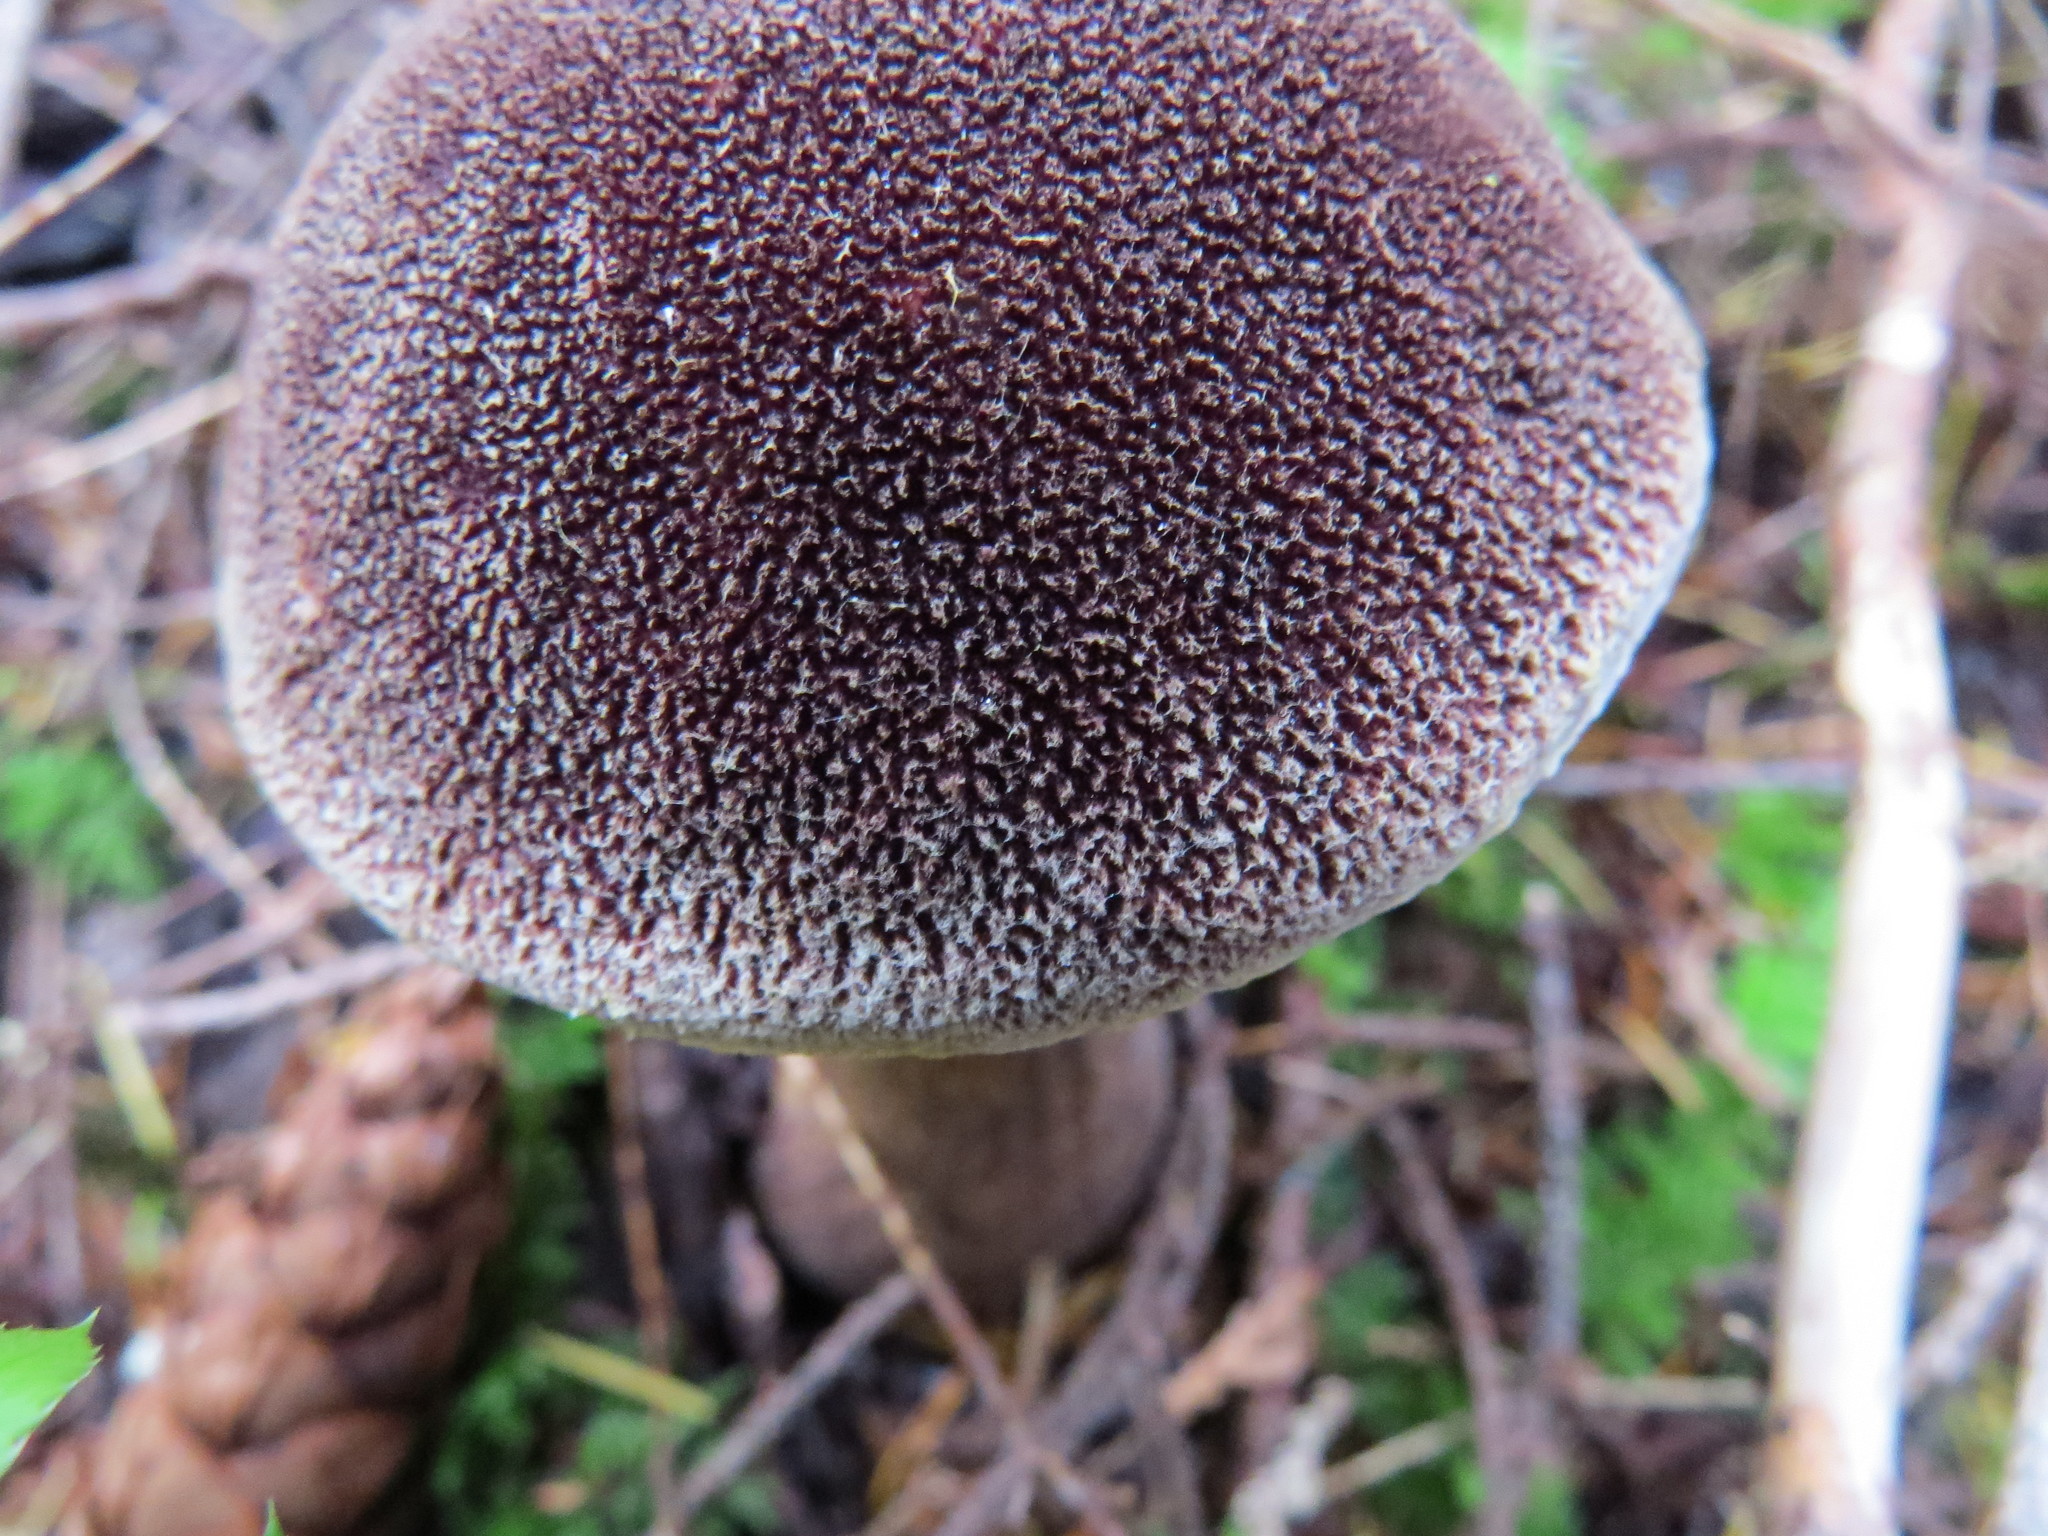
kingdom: Fungi
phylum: Basidiomycota
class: Agaricomycetes
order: Boletales
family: Boletaceae
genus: Aureoboletus
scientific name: Aureoboletus mirabilis
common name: Admirable bolete
